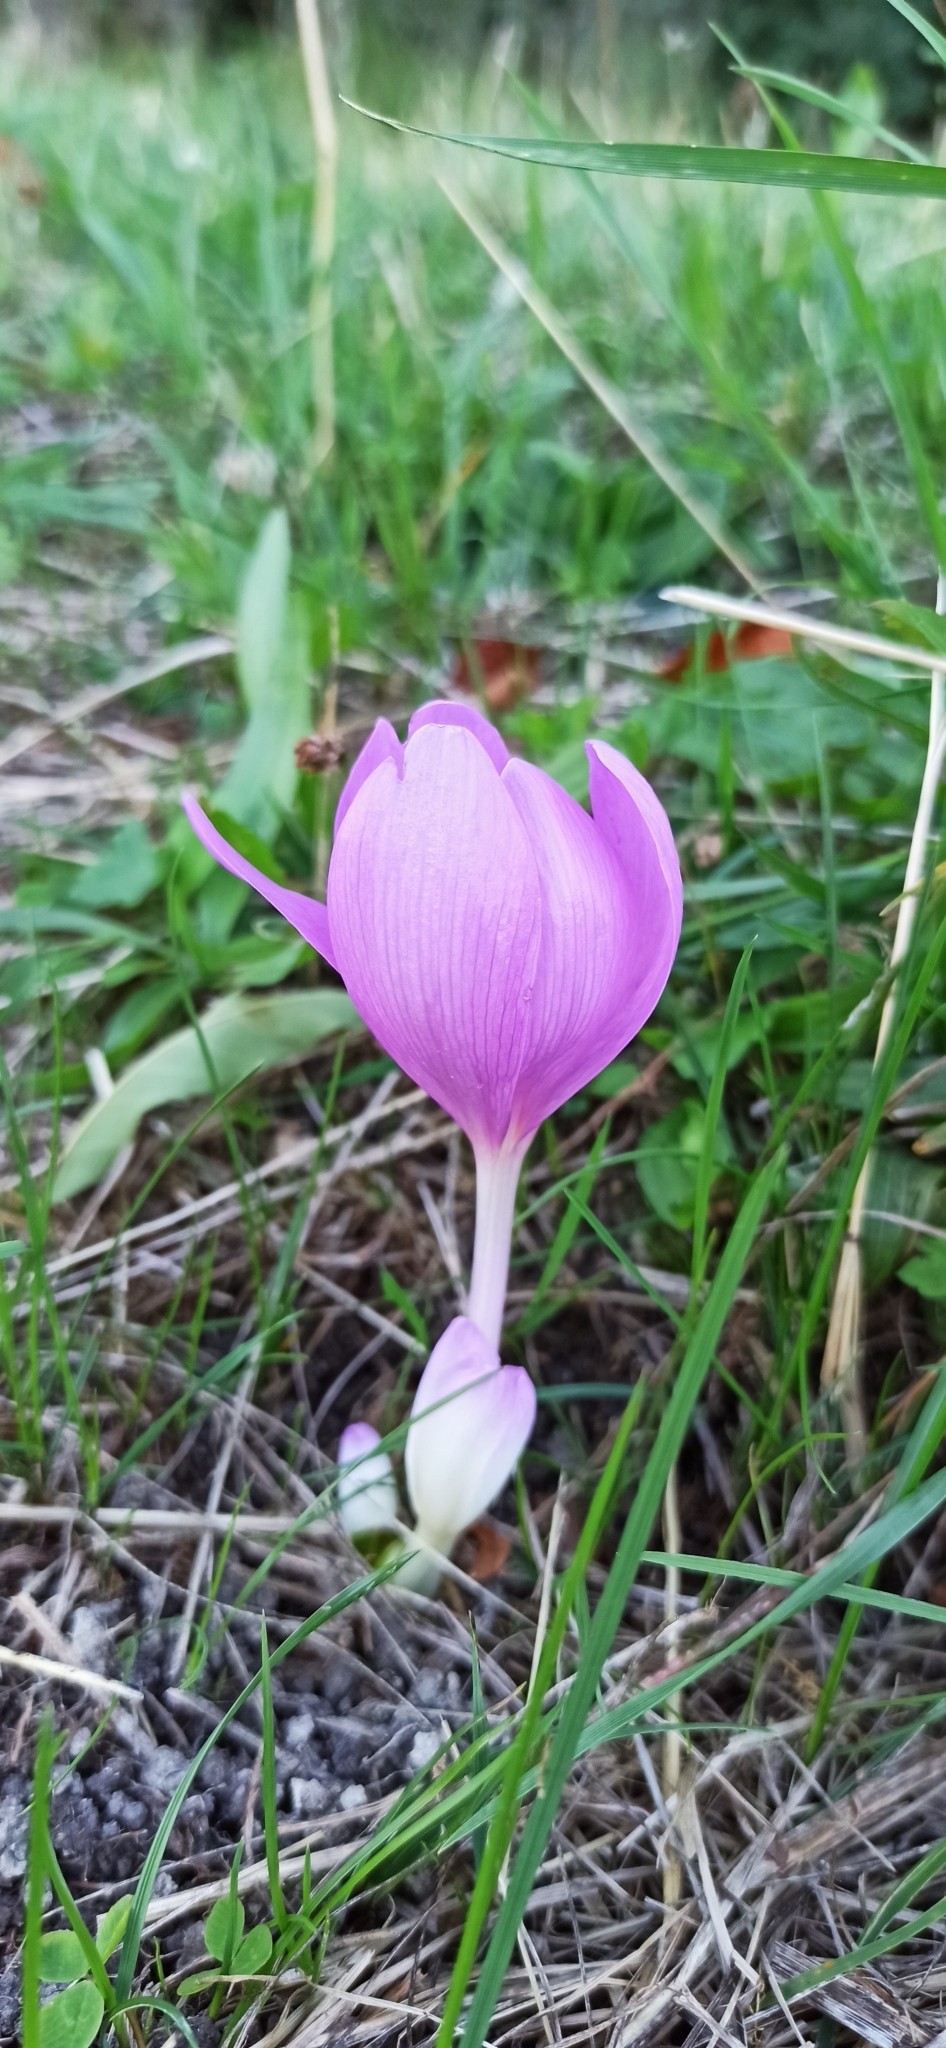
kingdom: Plantae
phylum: Tracheophyta
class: Liliopsida
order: Liliales
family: Colchicaceae
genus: Colchicum
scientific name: Colchicum autumnale
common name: Autumn crocus
